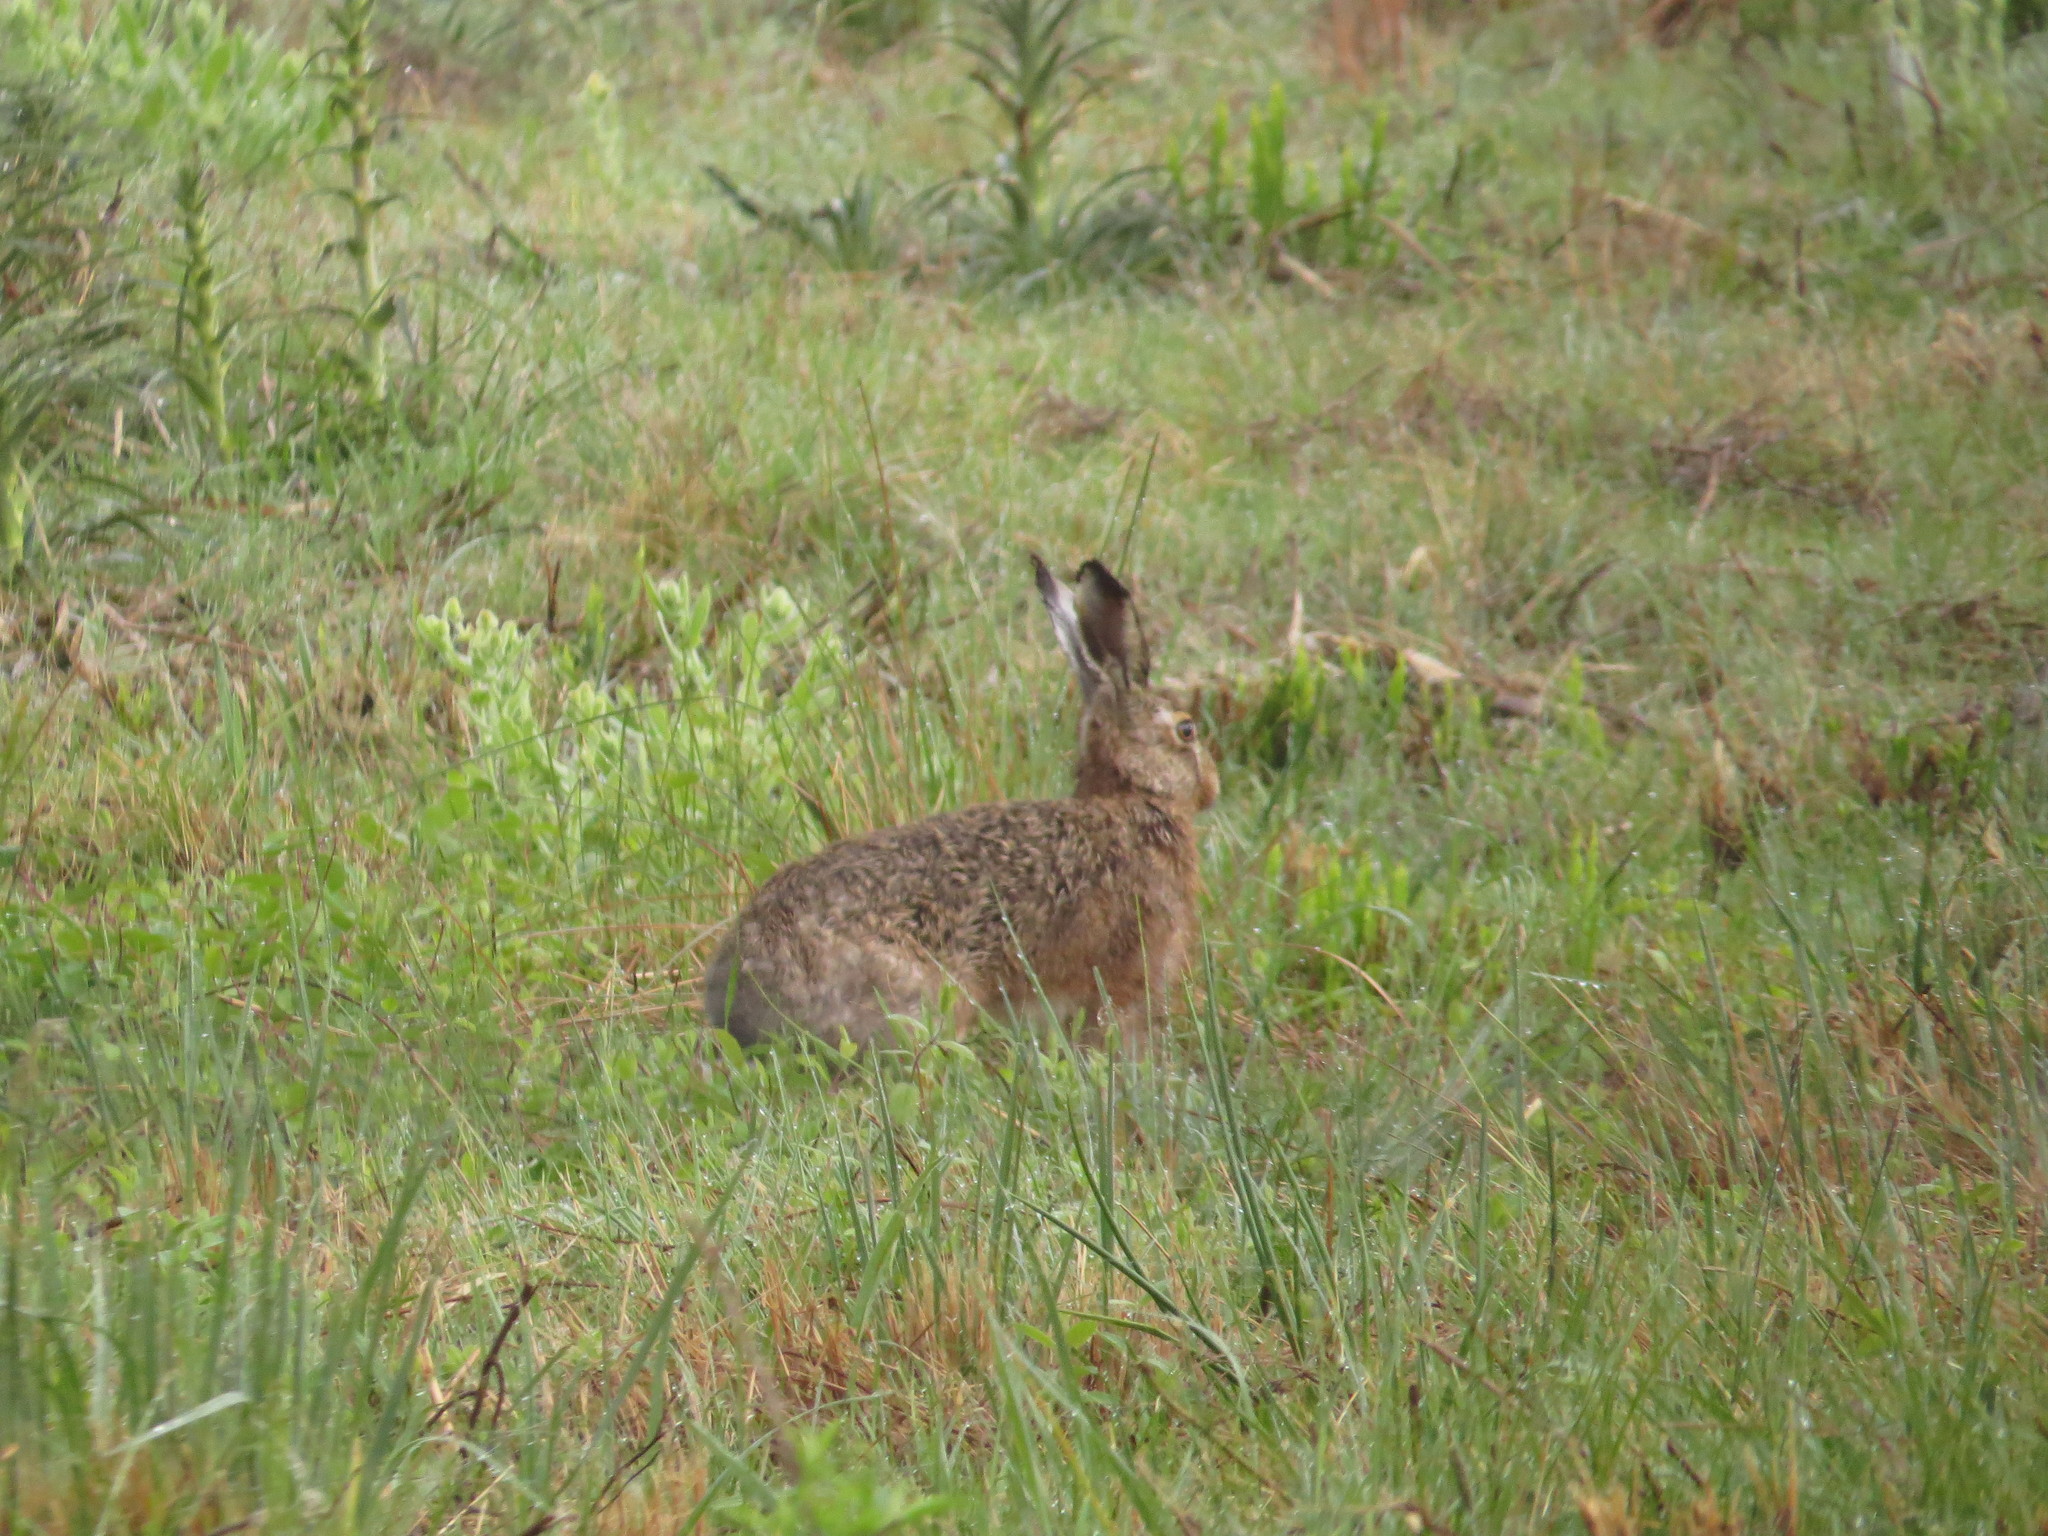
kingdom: Animalia
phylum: Chordata
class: Mammalia
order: Lagomorpha
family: Leporidae
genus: Lepus
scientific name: Lepus europaeus
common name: European hare
